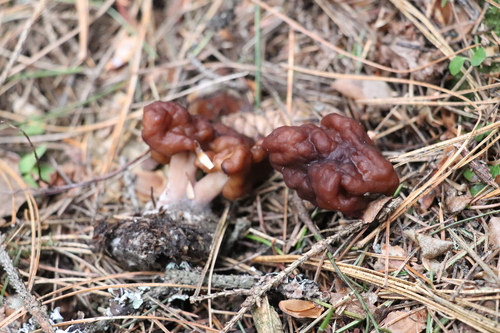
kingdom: Fungi
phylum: Ascomycota
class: Pezizomycetes
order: Pezizales
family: Discinaceae
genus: Gyromitra
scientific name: Gyromitra
